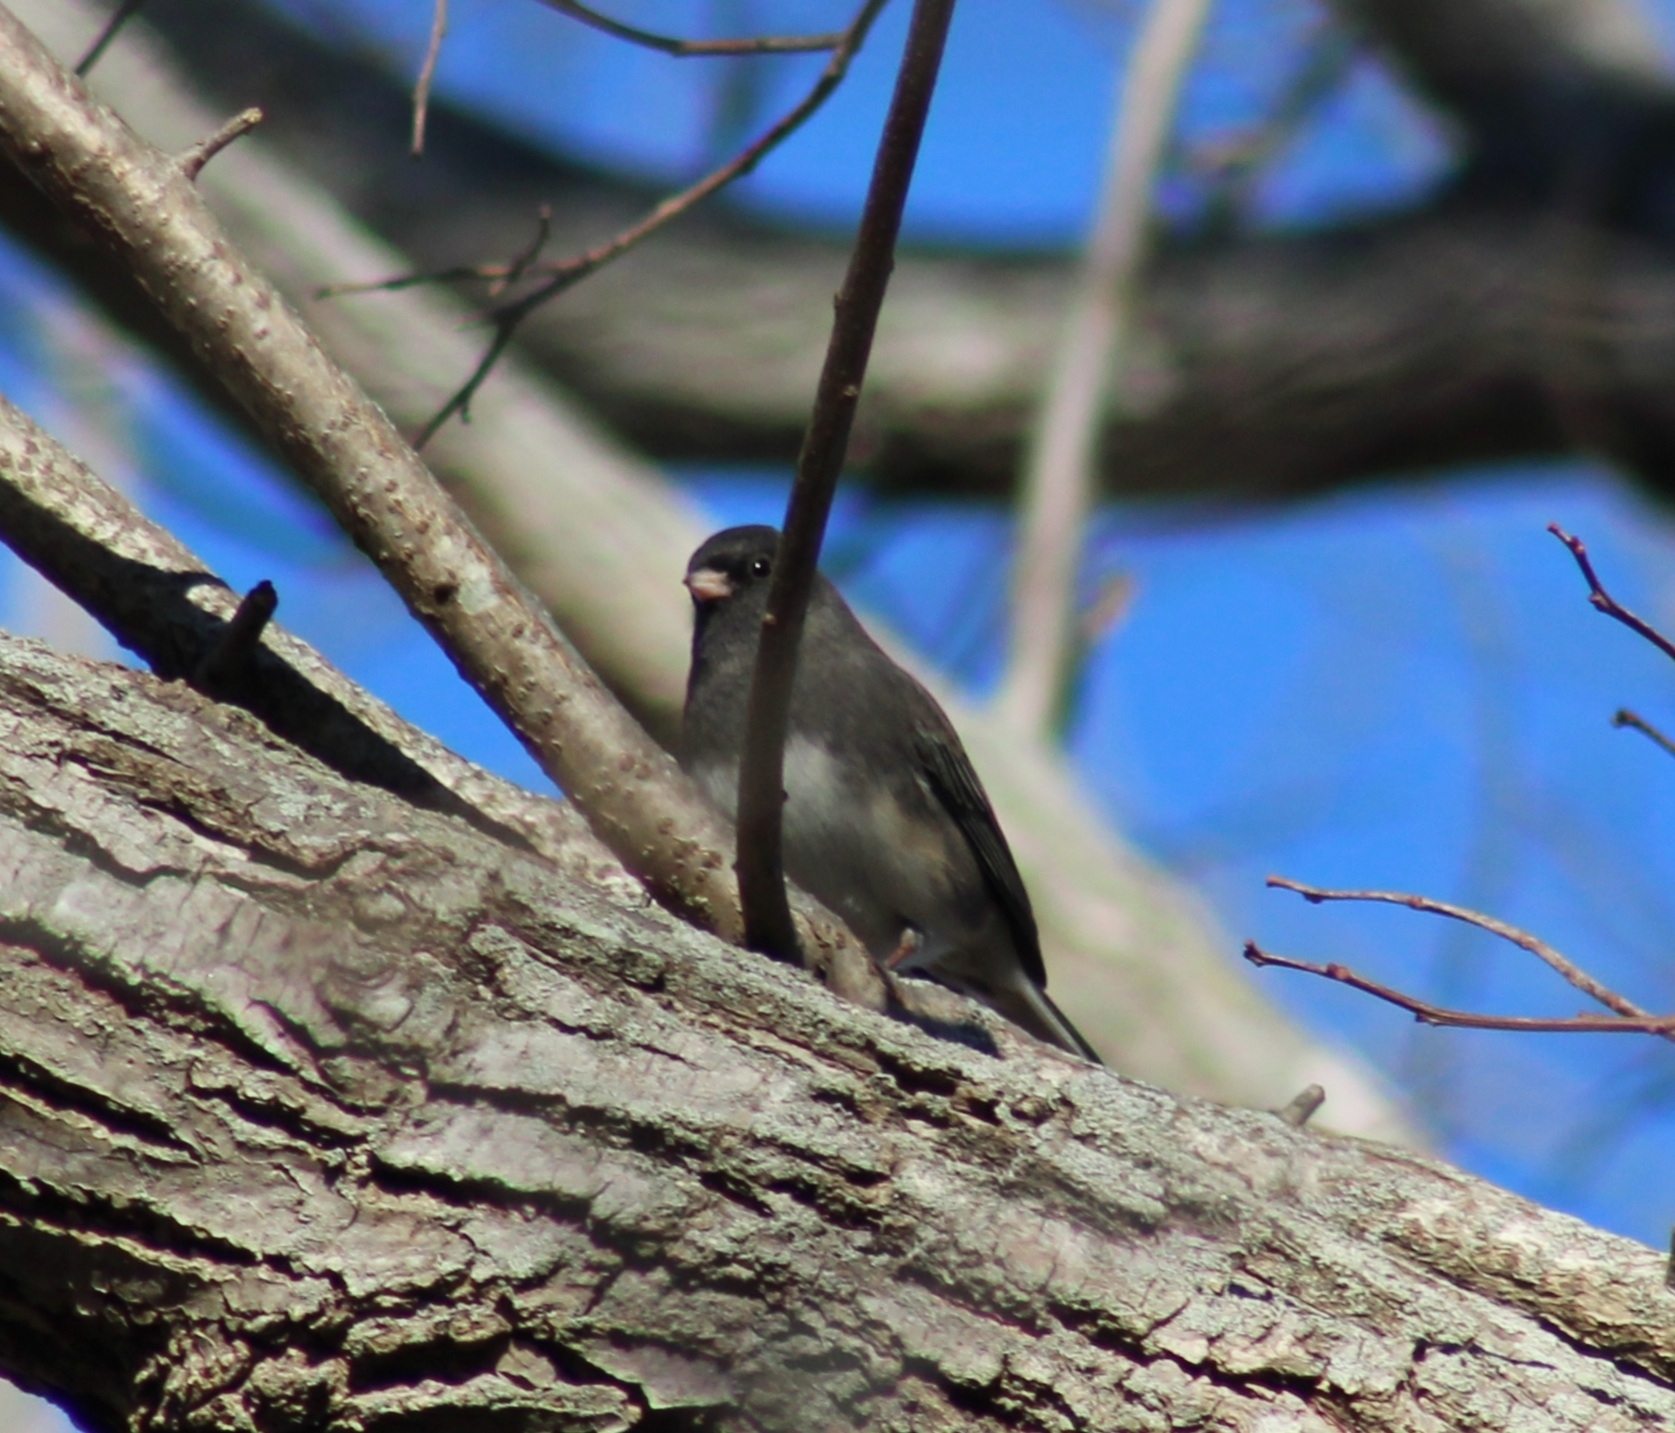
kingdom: Animalia
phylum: Chordata
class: Aves
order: Passeriformes
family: Passerellidae
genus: Junco
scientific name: Junco hyemalis
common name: Dark-eyed junco
